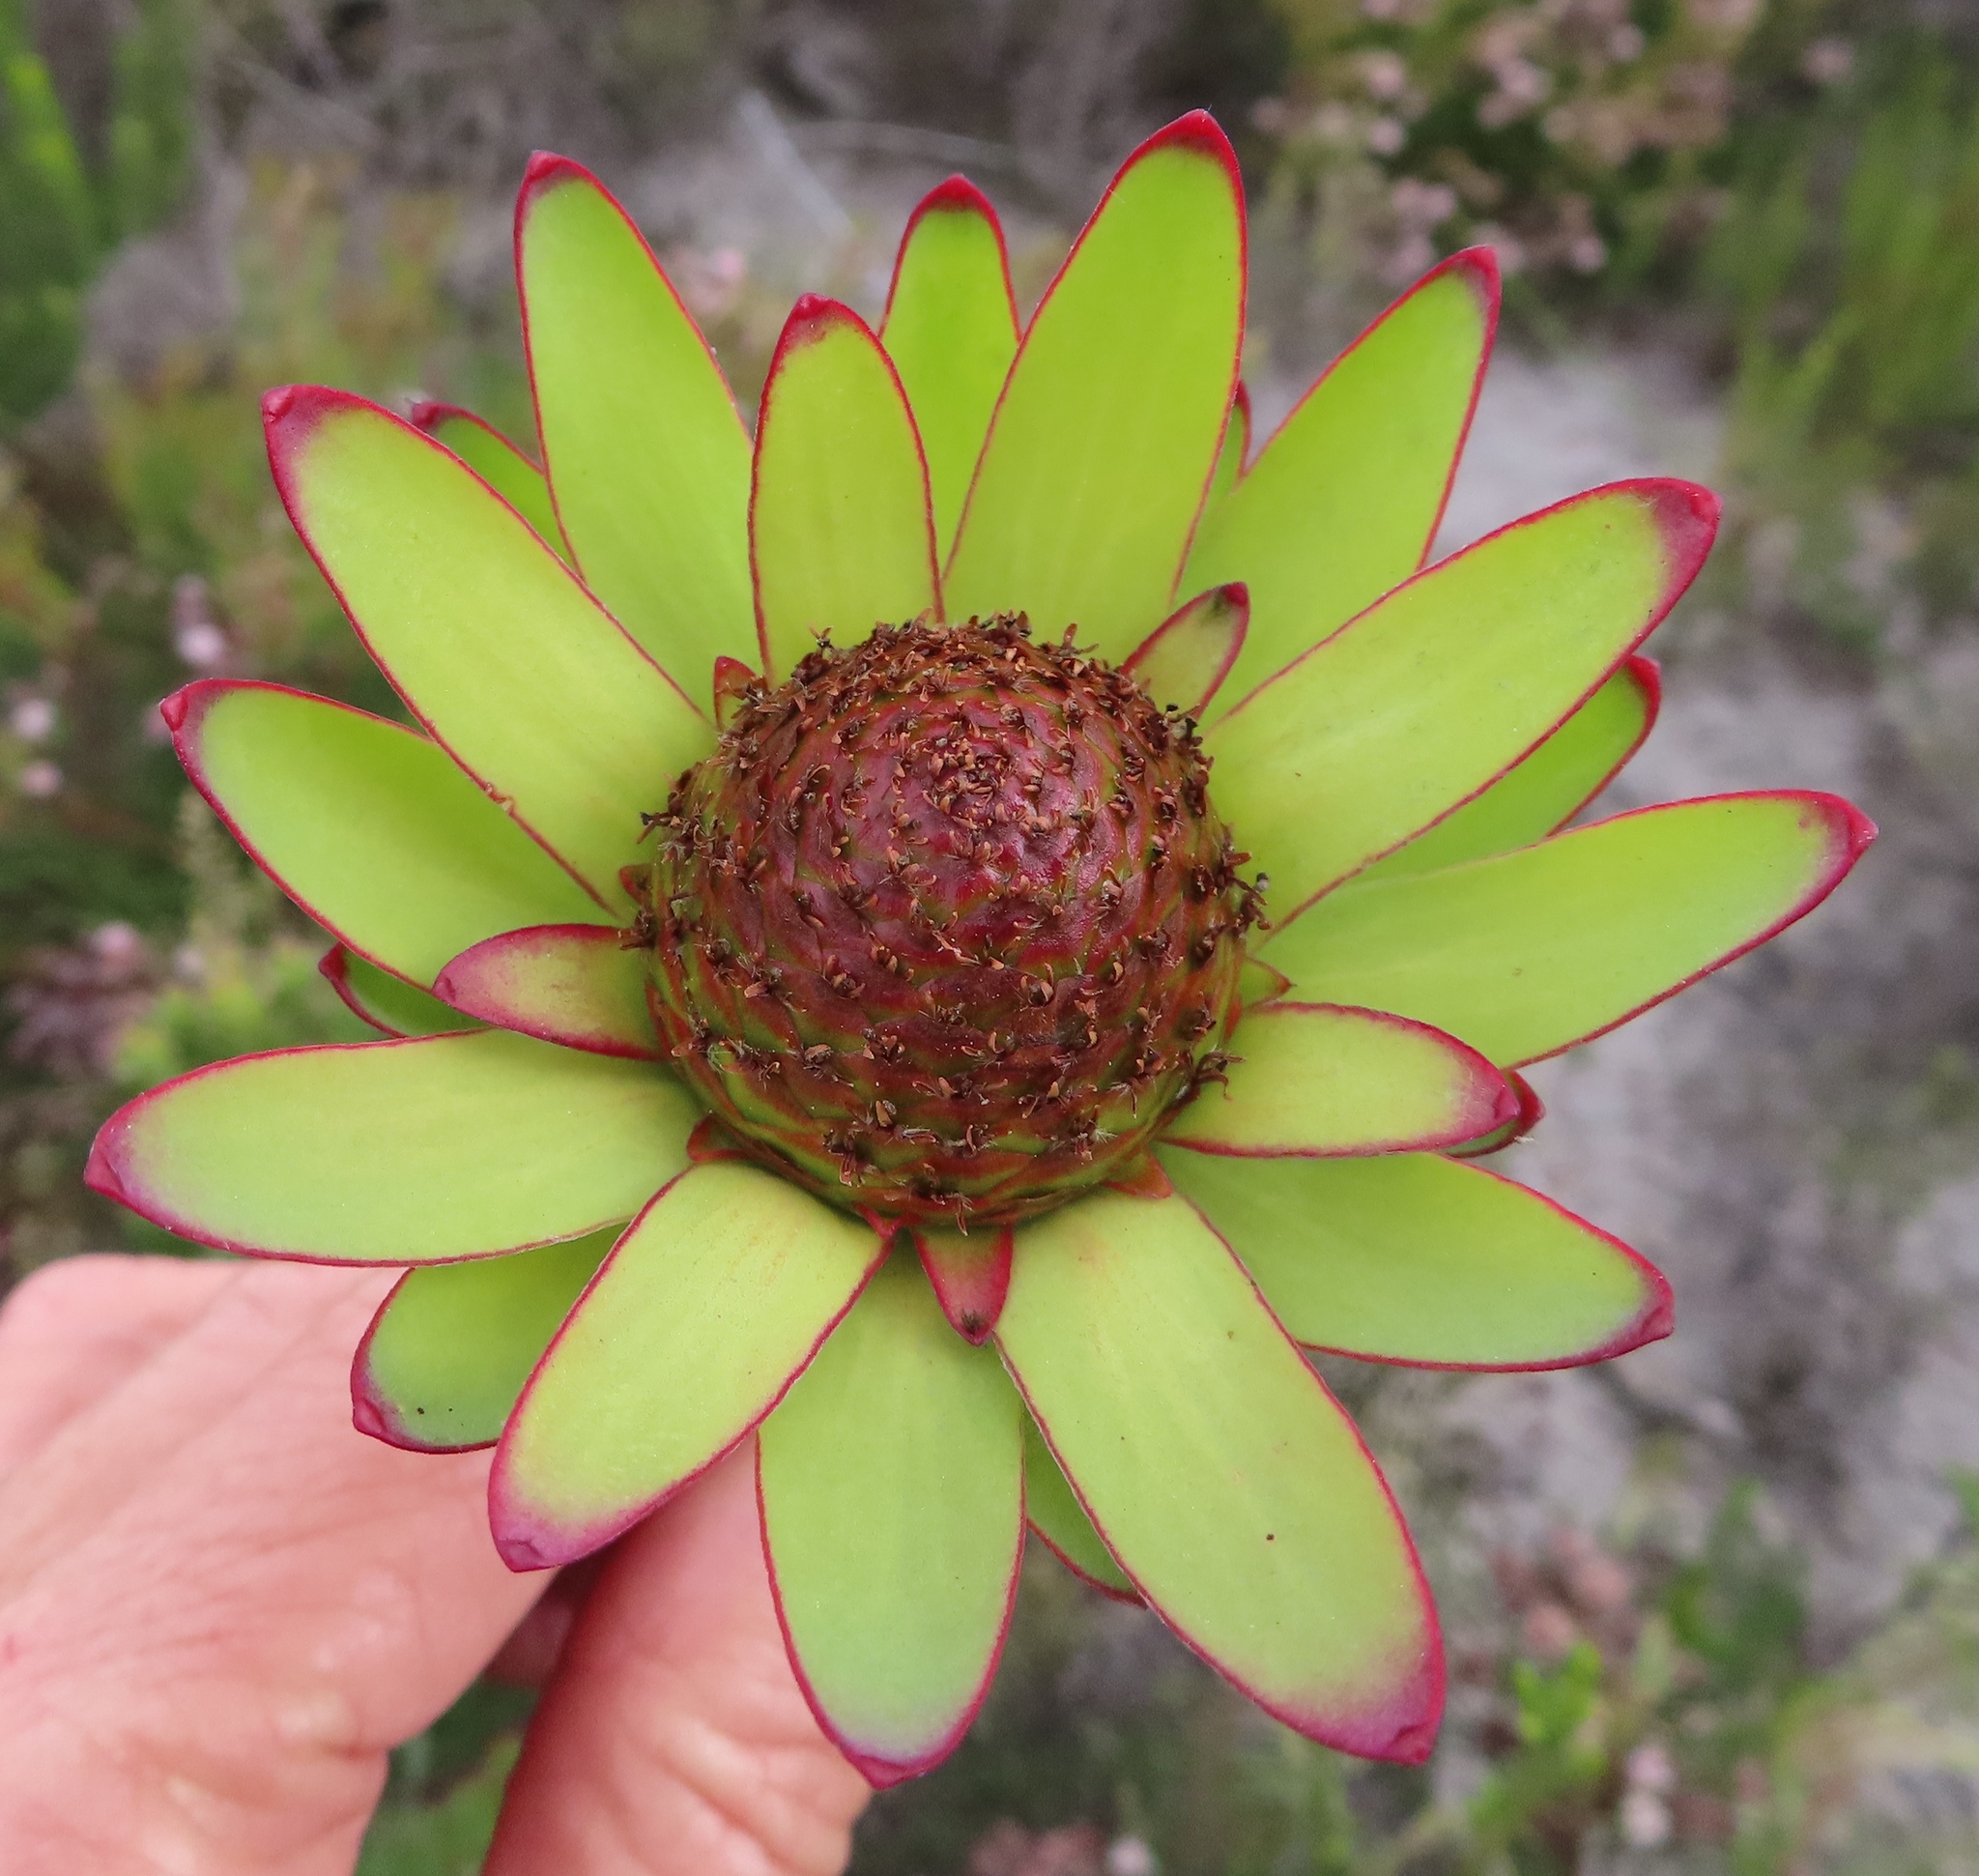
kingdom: Plantae
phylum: Tracheophyta
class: Magnoliopsida
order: Proteales
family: Proteaceae
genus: Leucadendron
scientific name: Leucadendron elimense
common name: Elim conebush
